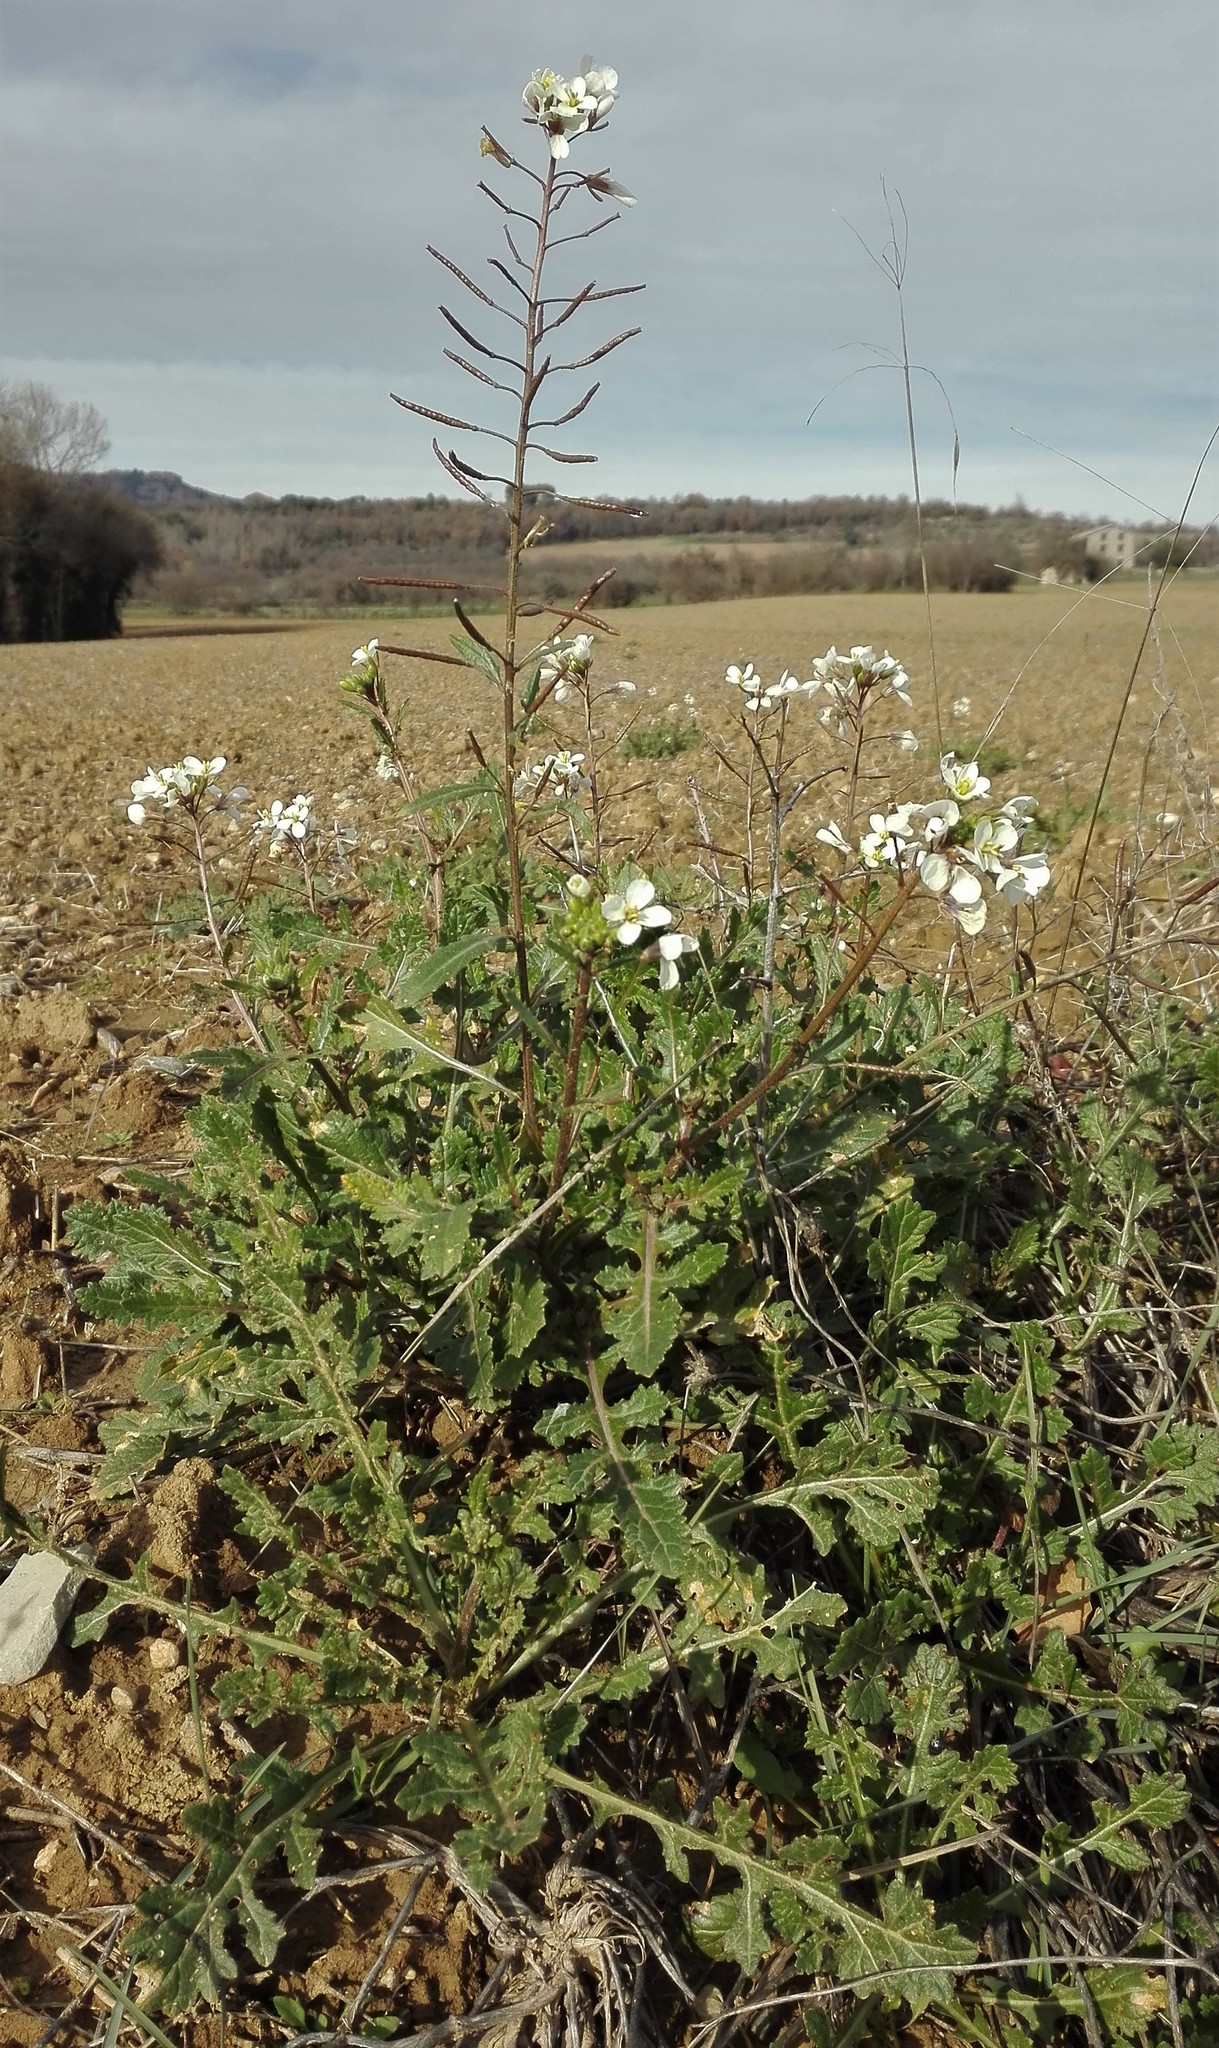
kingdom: Plantae
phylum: Tracheophyta
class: Magnoliopsida
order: Brassicales
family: Brassicaceae
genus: Diplotaxis
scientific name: Diplotaxis erucoides
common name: White rocket
